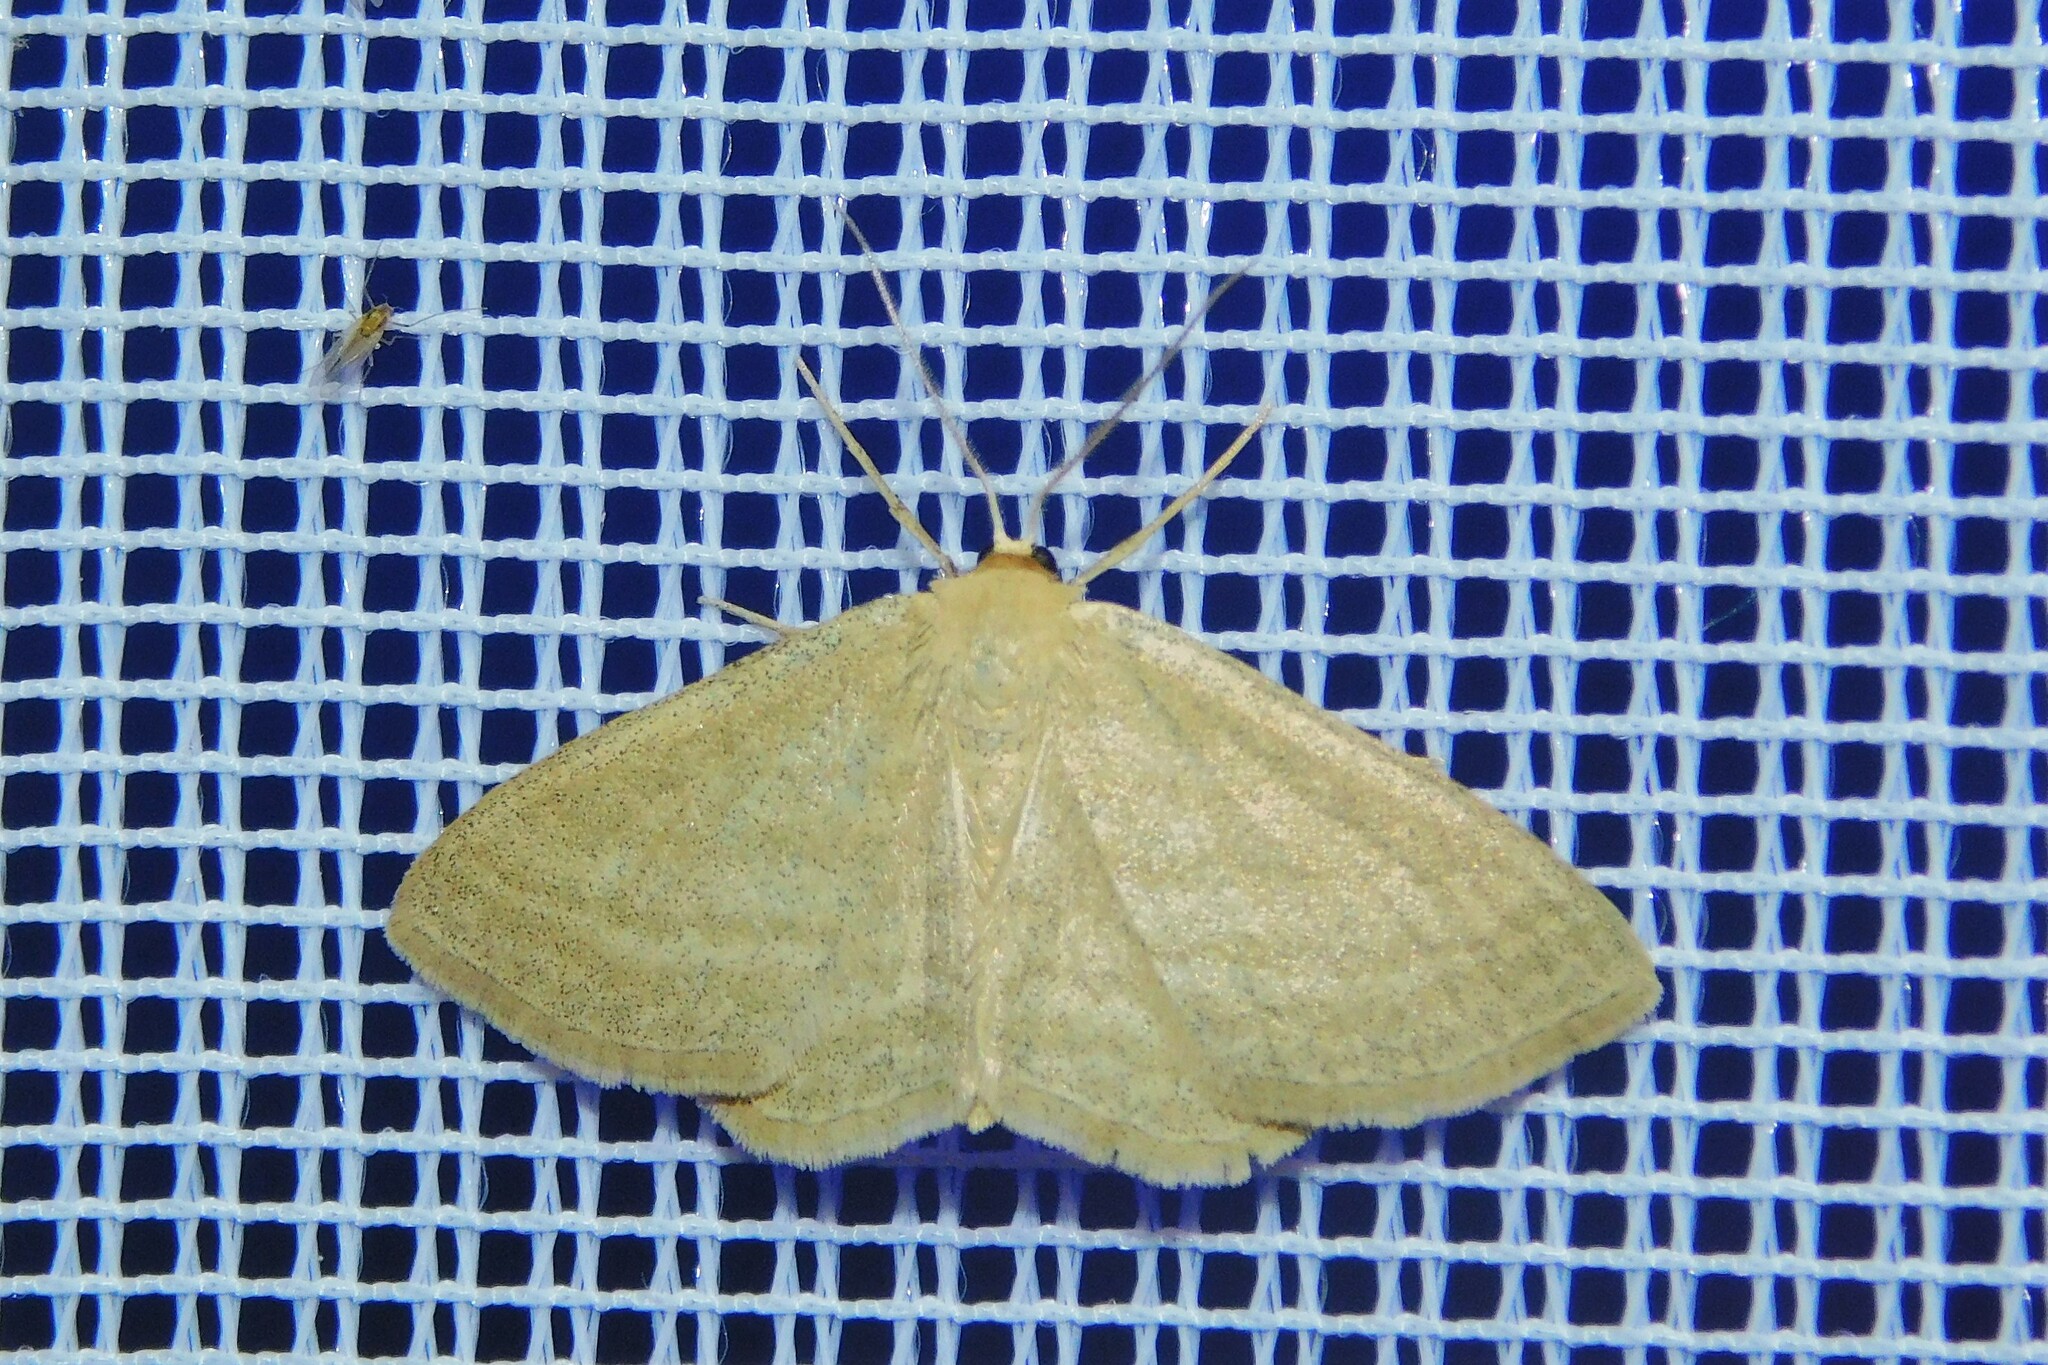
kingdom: Animalia
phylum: Arthropoda
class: Insecta
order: Lepidoptera
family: Geometridae
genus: Scopula
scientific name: Scopula virgulata
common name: Streaked wave
